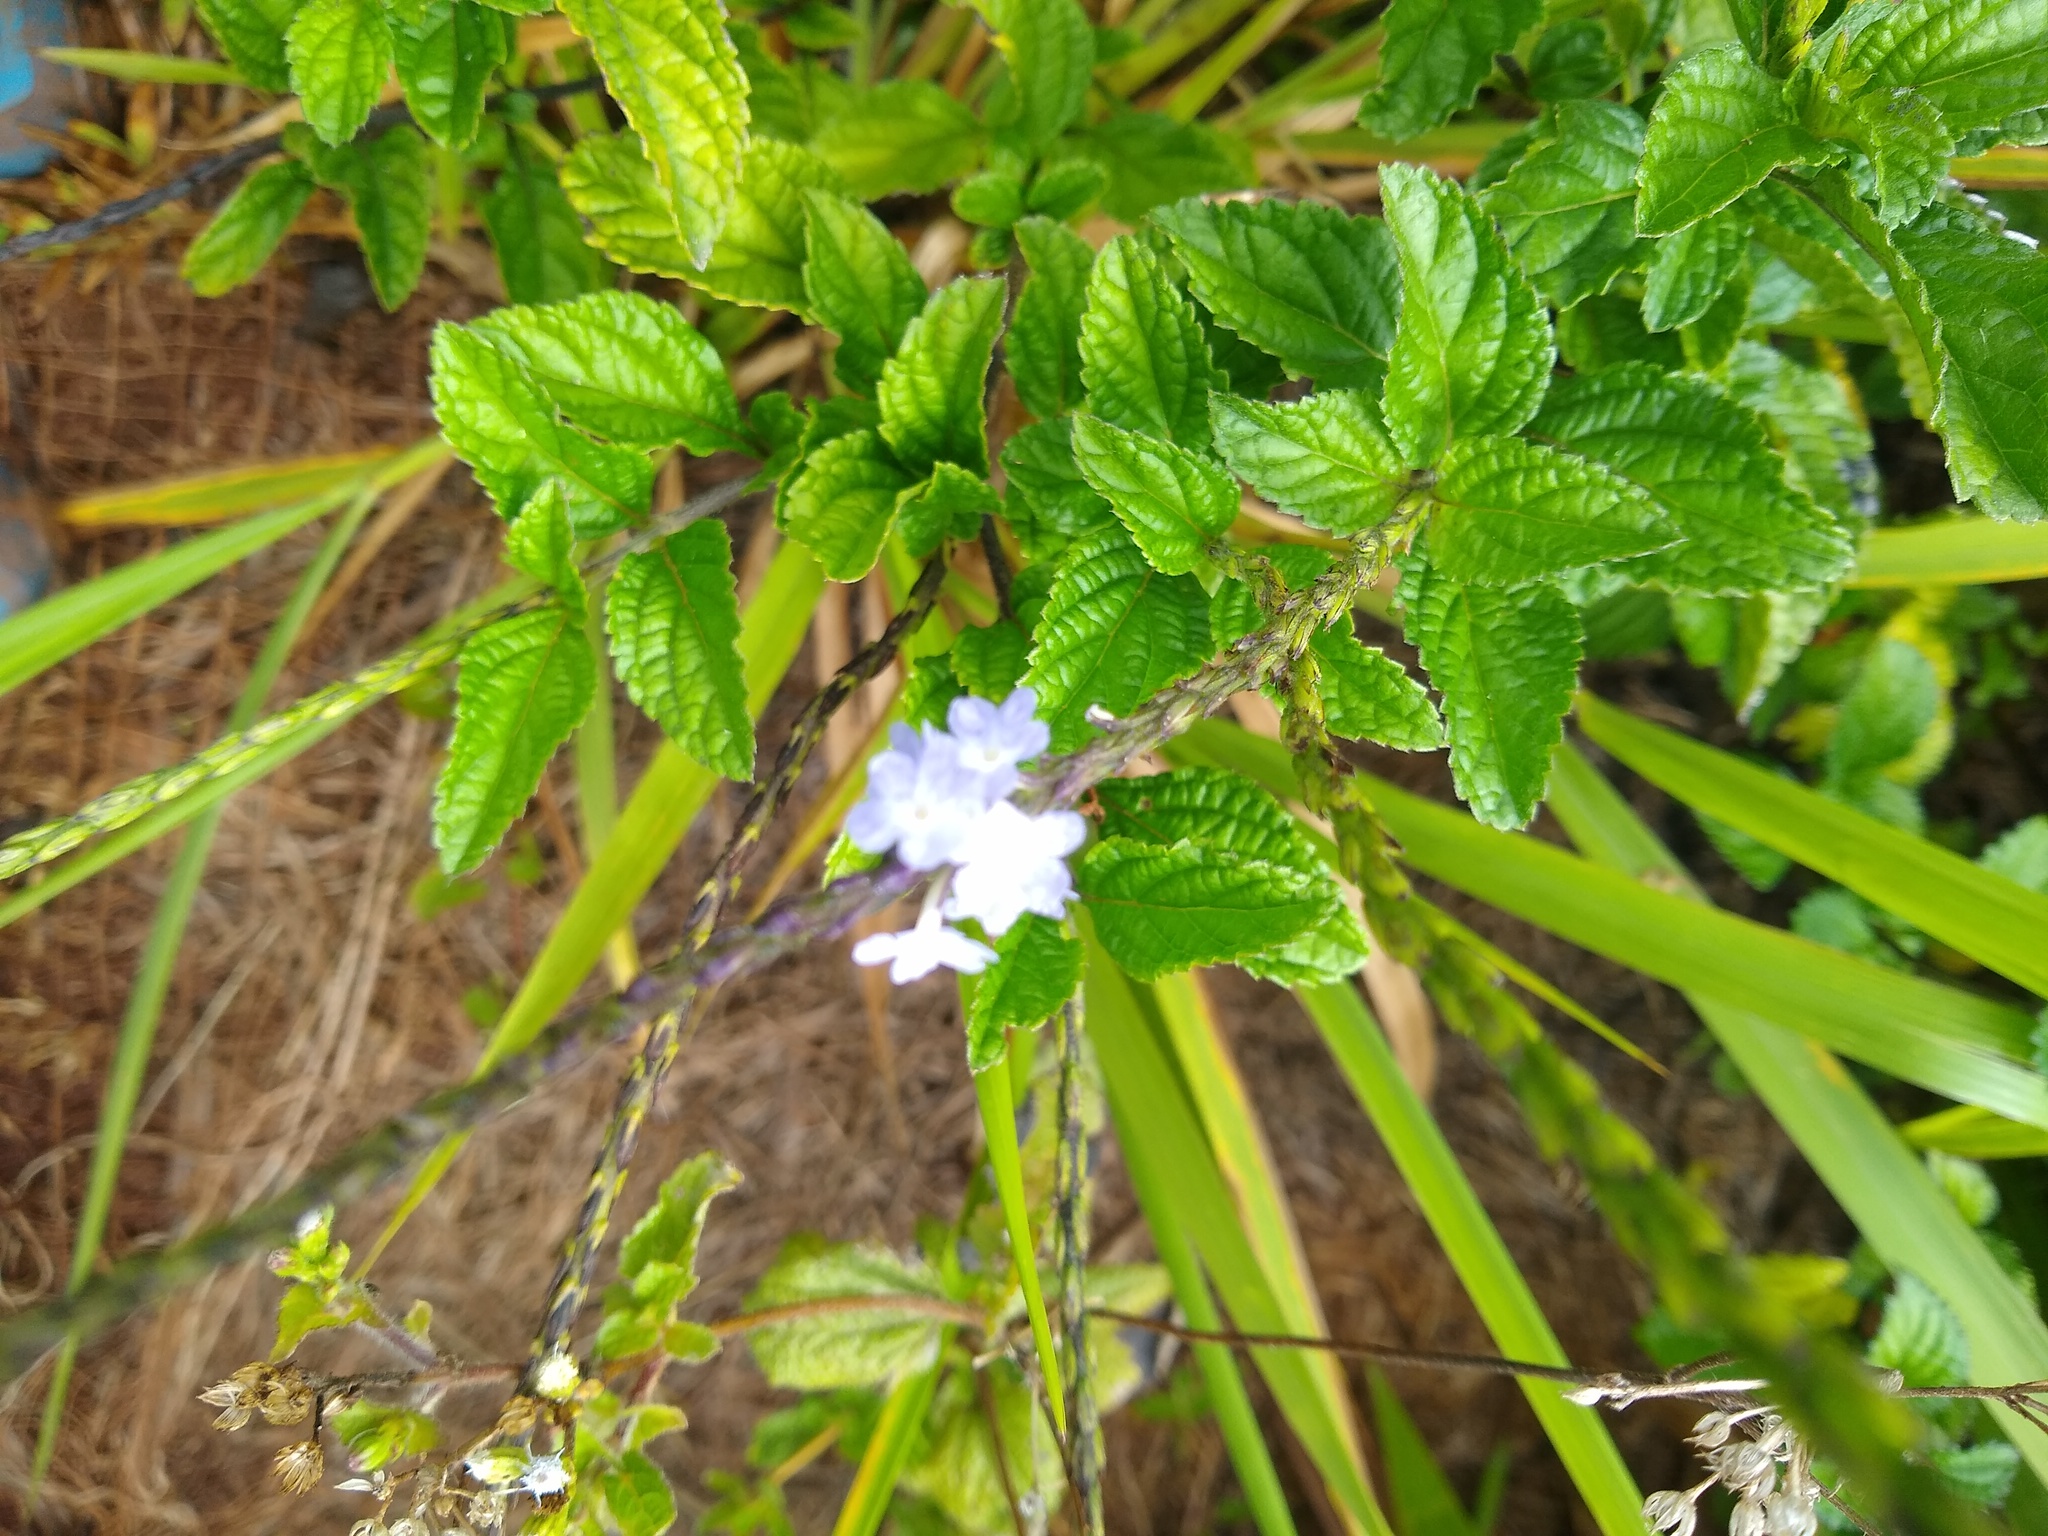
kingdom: Plantae
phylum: Tracheophyta
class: Magnoliopsida
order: Lamiales
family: Verbenaceae
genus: Stachytarpheta
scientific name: Stachytarpheta cayennensis
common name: Cayenne porterweed
